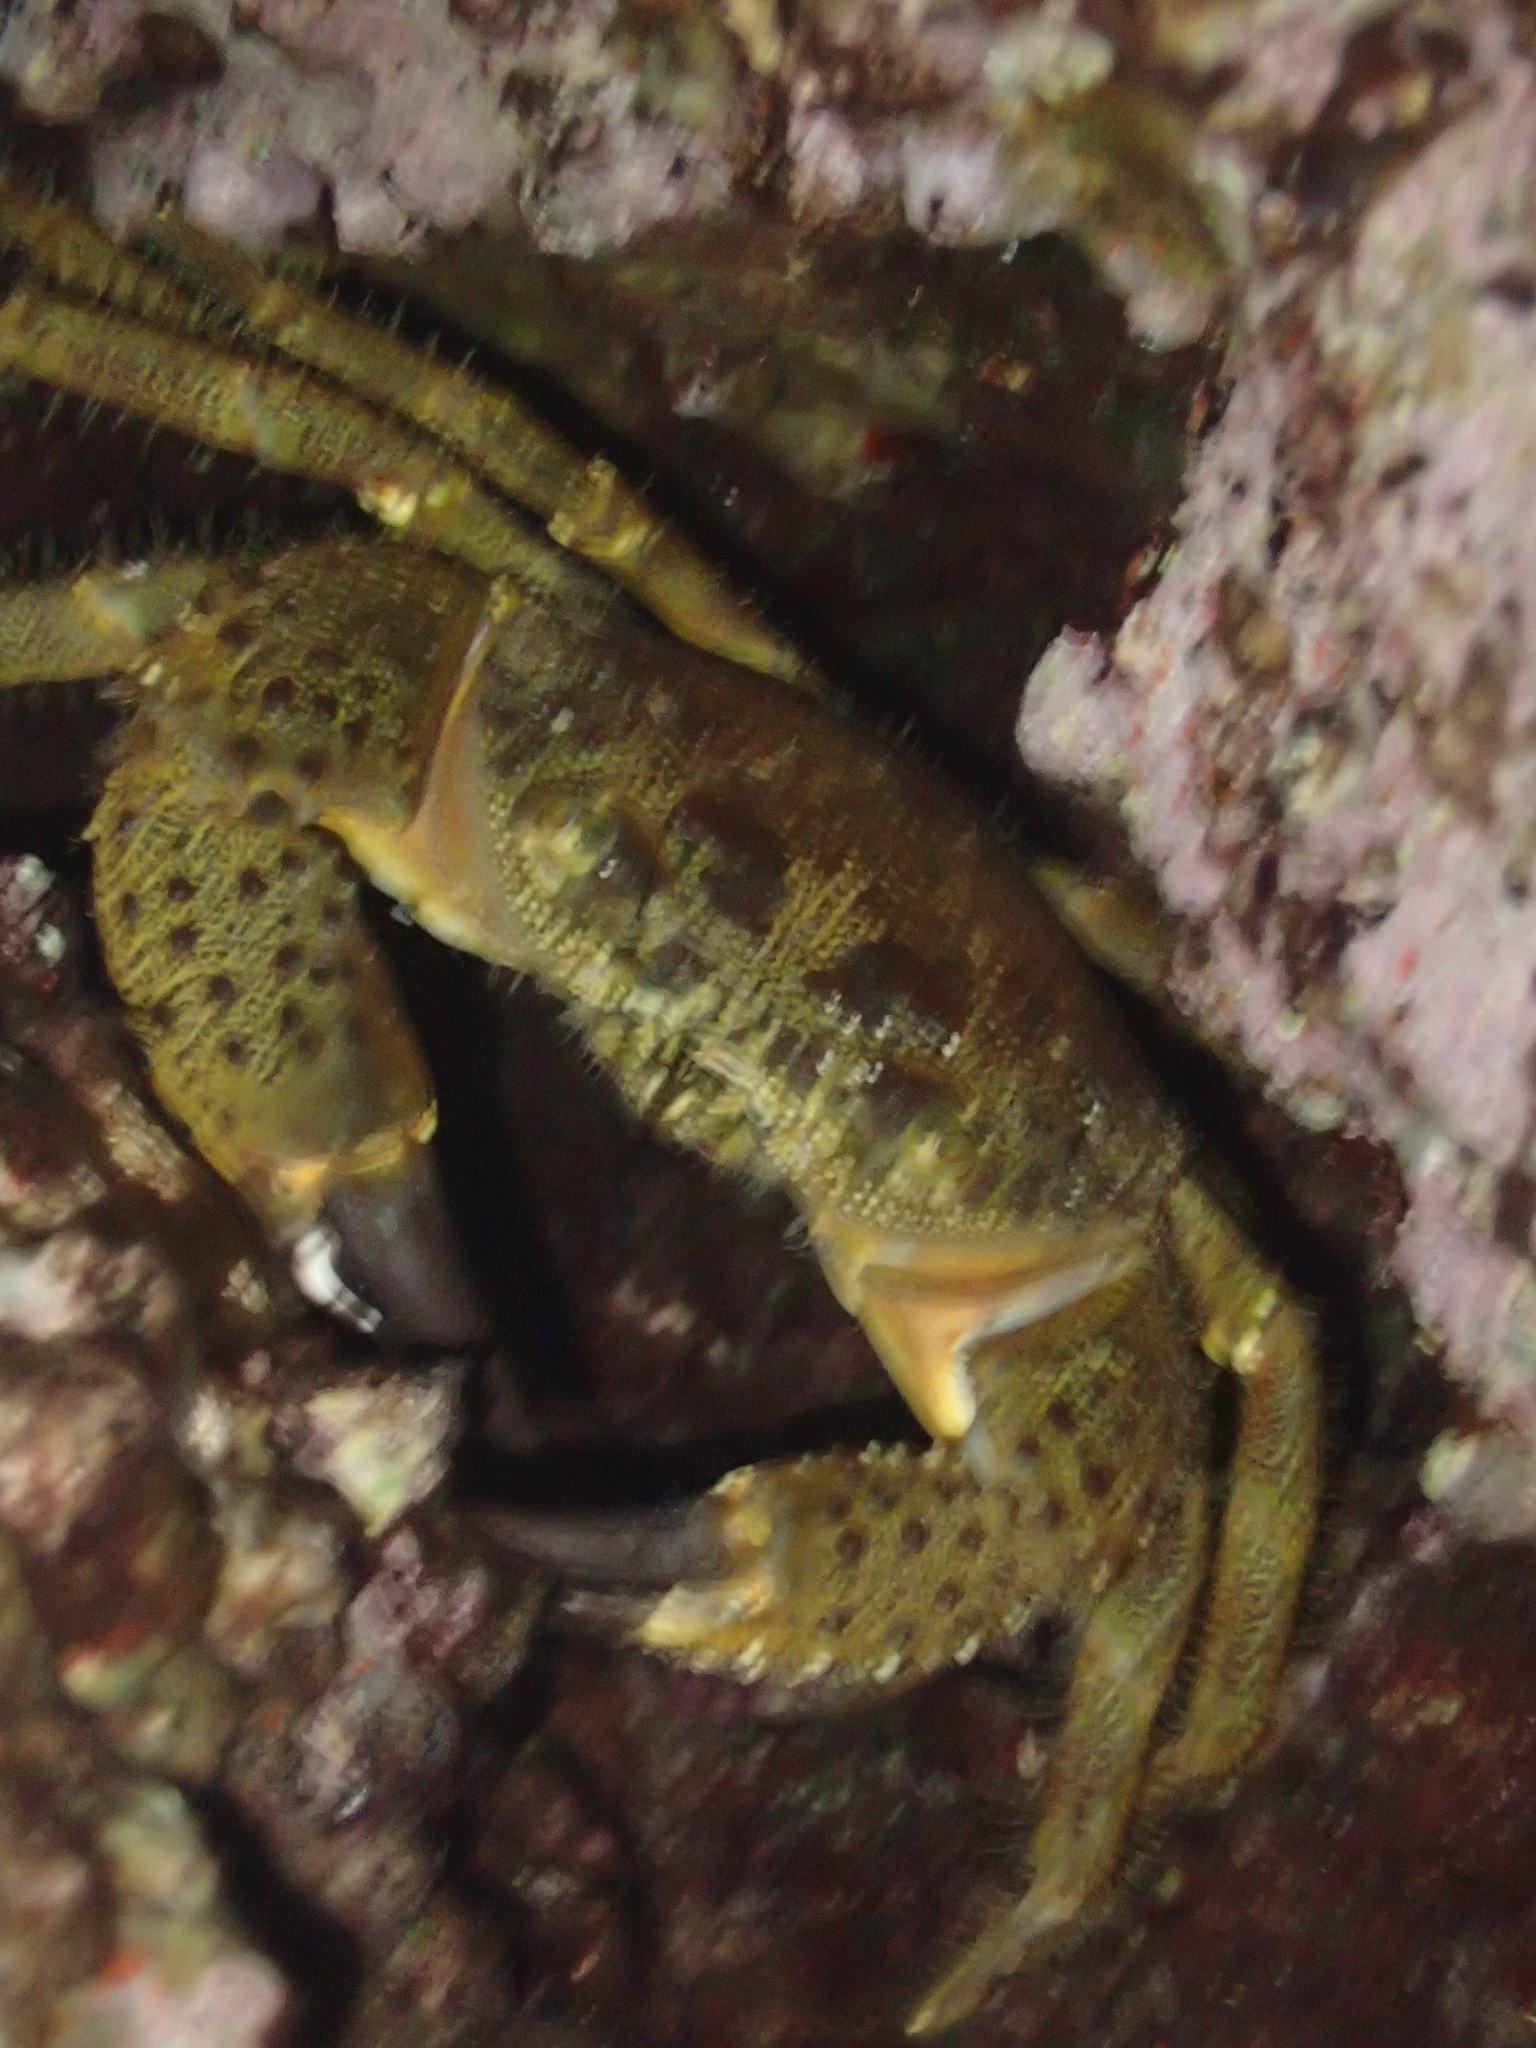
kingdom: Animalia
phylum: Arthropoda
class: Malacostraca
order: Decapoda
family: Eriphiidae
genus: Eriphia
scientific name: Eriphia verrucosa
